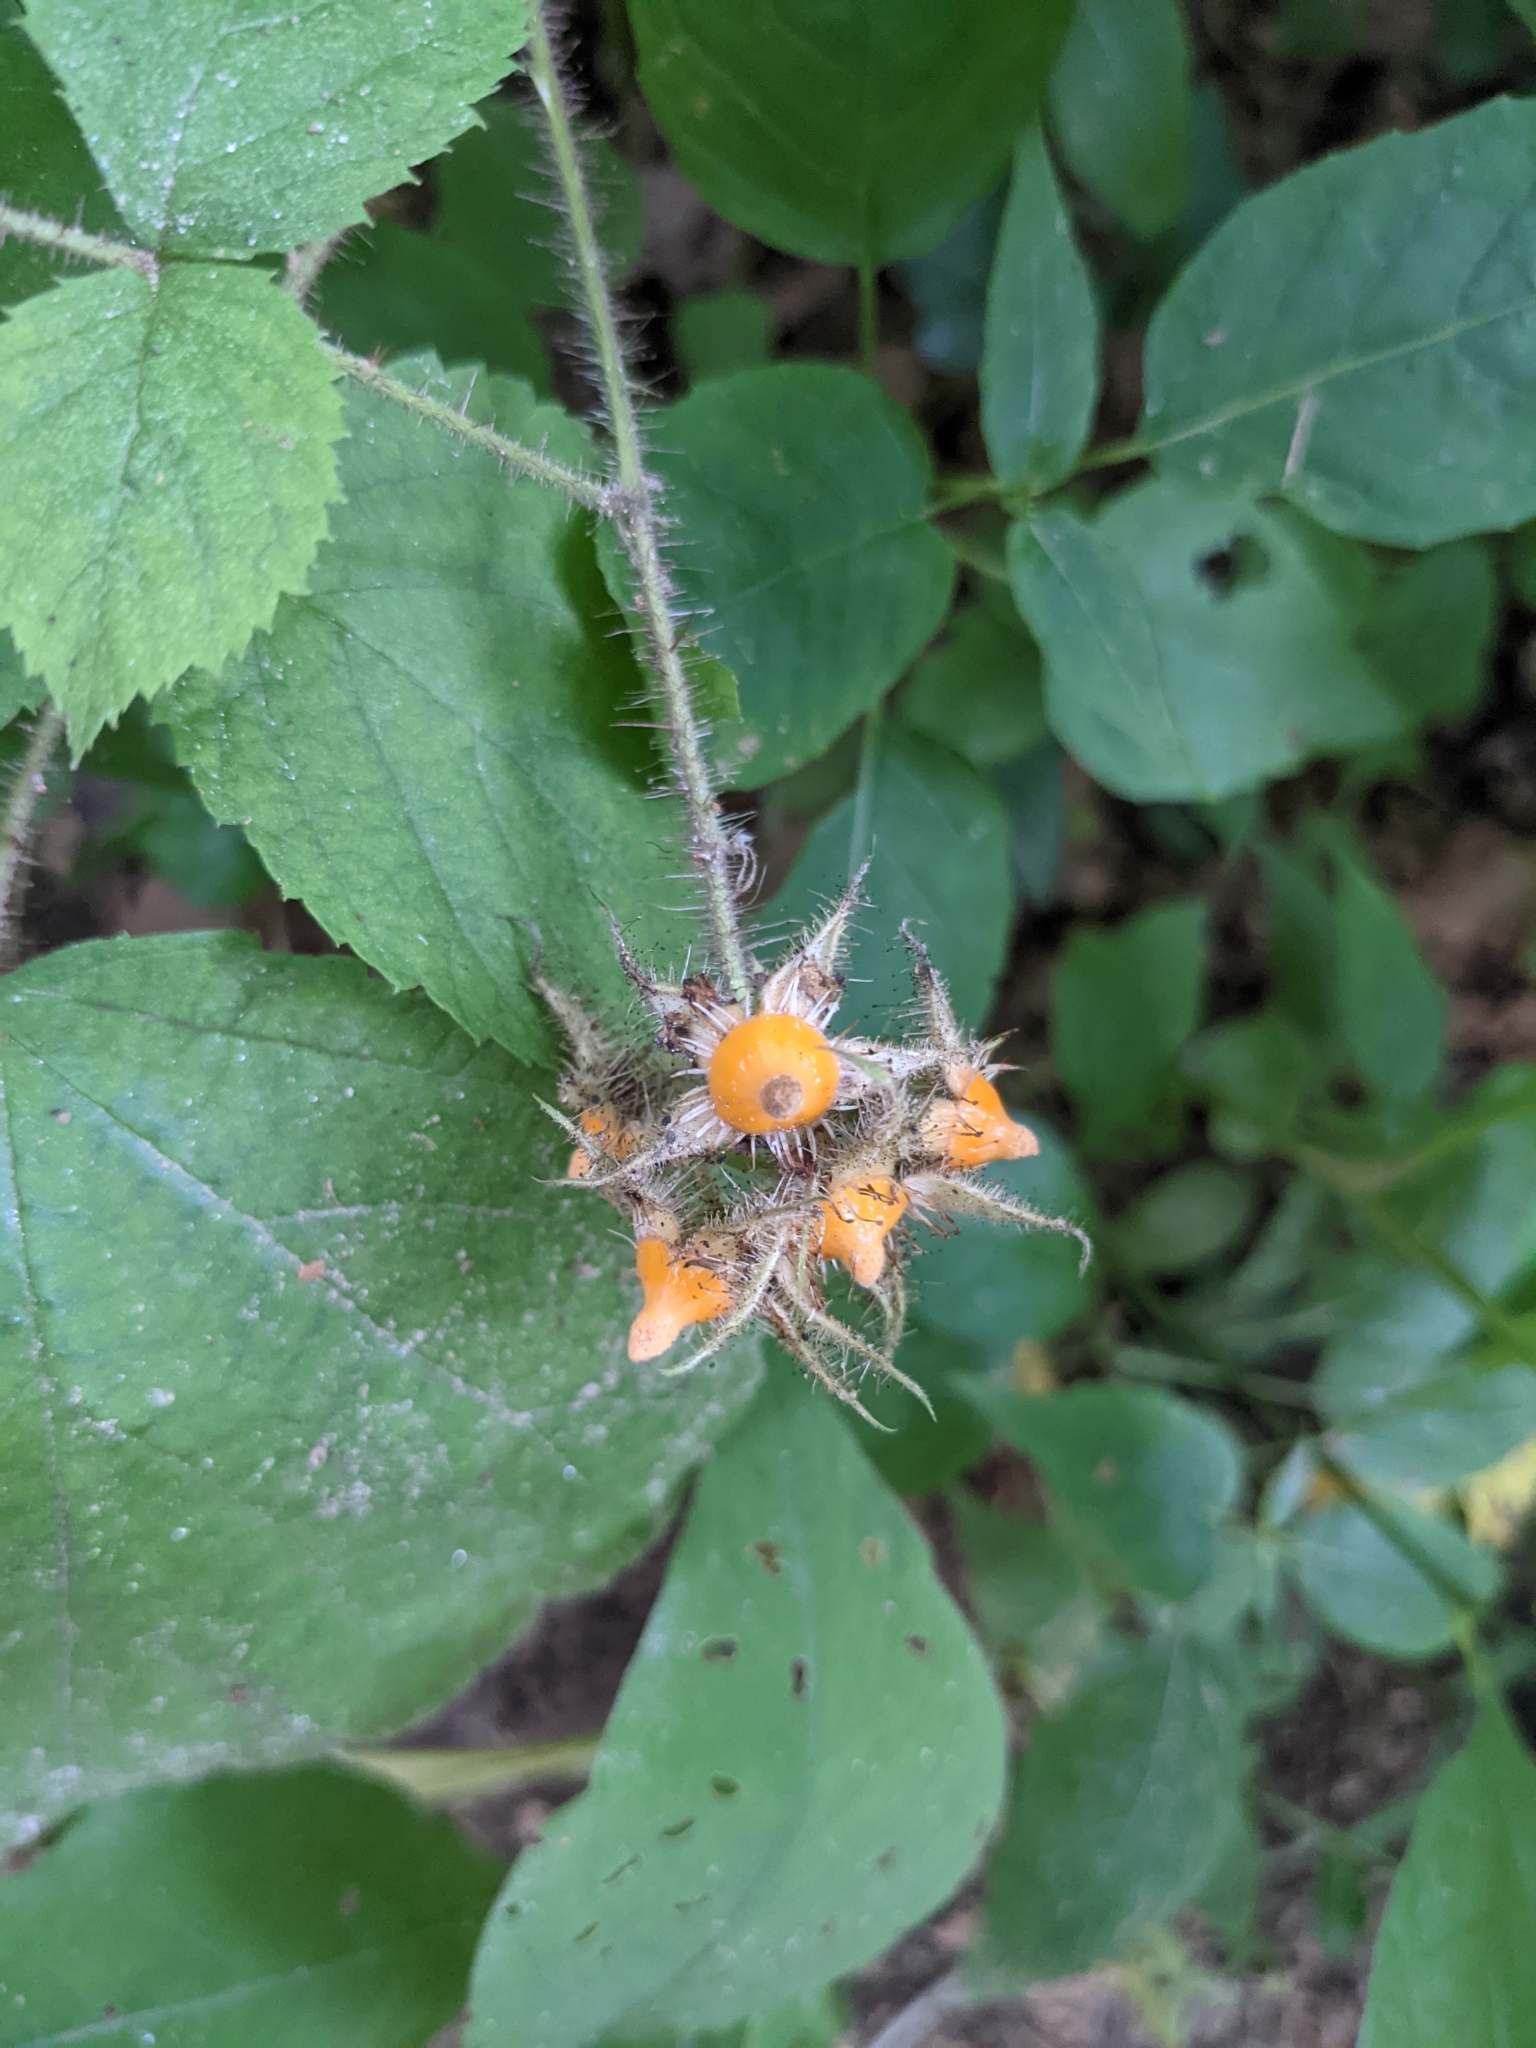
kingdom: Plantae
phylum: Tracheophyta
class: Magnoliopsida
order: Rosales
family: Rosaceae
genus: Rubus
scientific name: Rubus phoenicolasius
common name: Japanese wineberry
